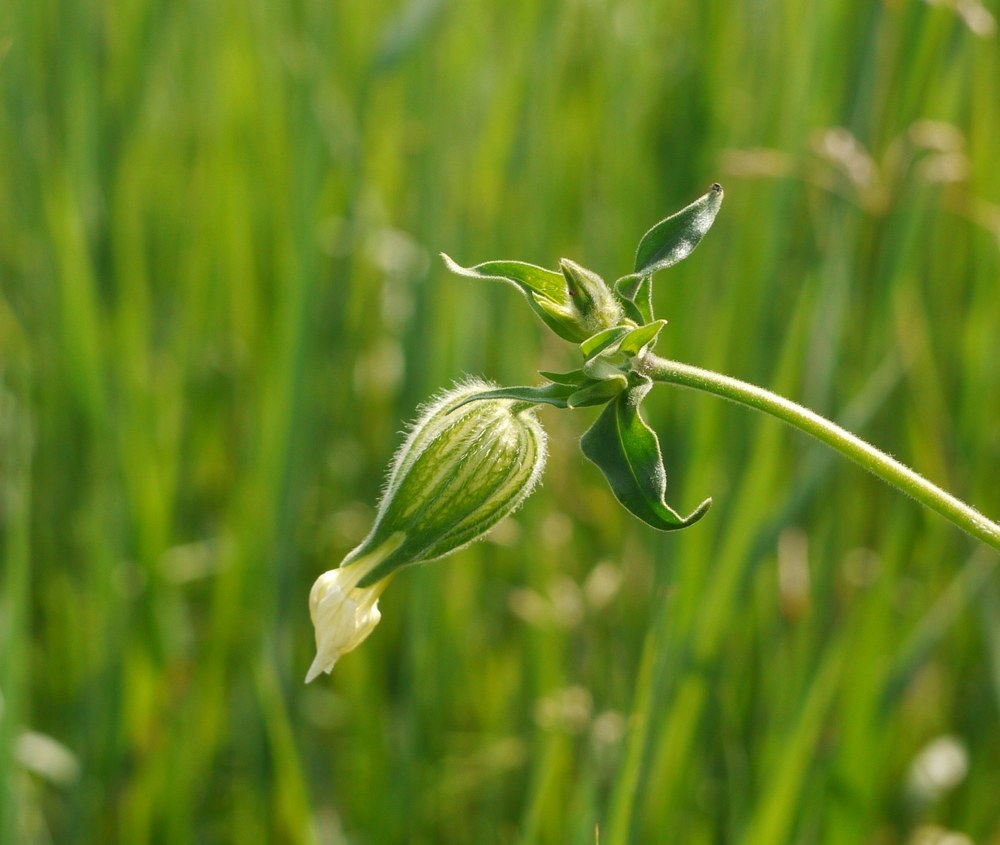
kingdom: Plantae
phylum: Tracheophyta
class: Magnoliopsida
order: Caryophyllales
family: Caryophyllaceae
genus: Silene
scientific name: Silene latifolia
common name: White campion
